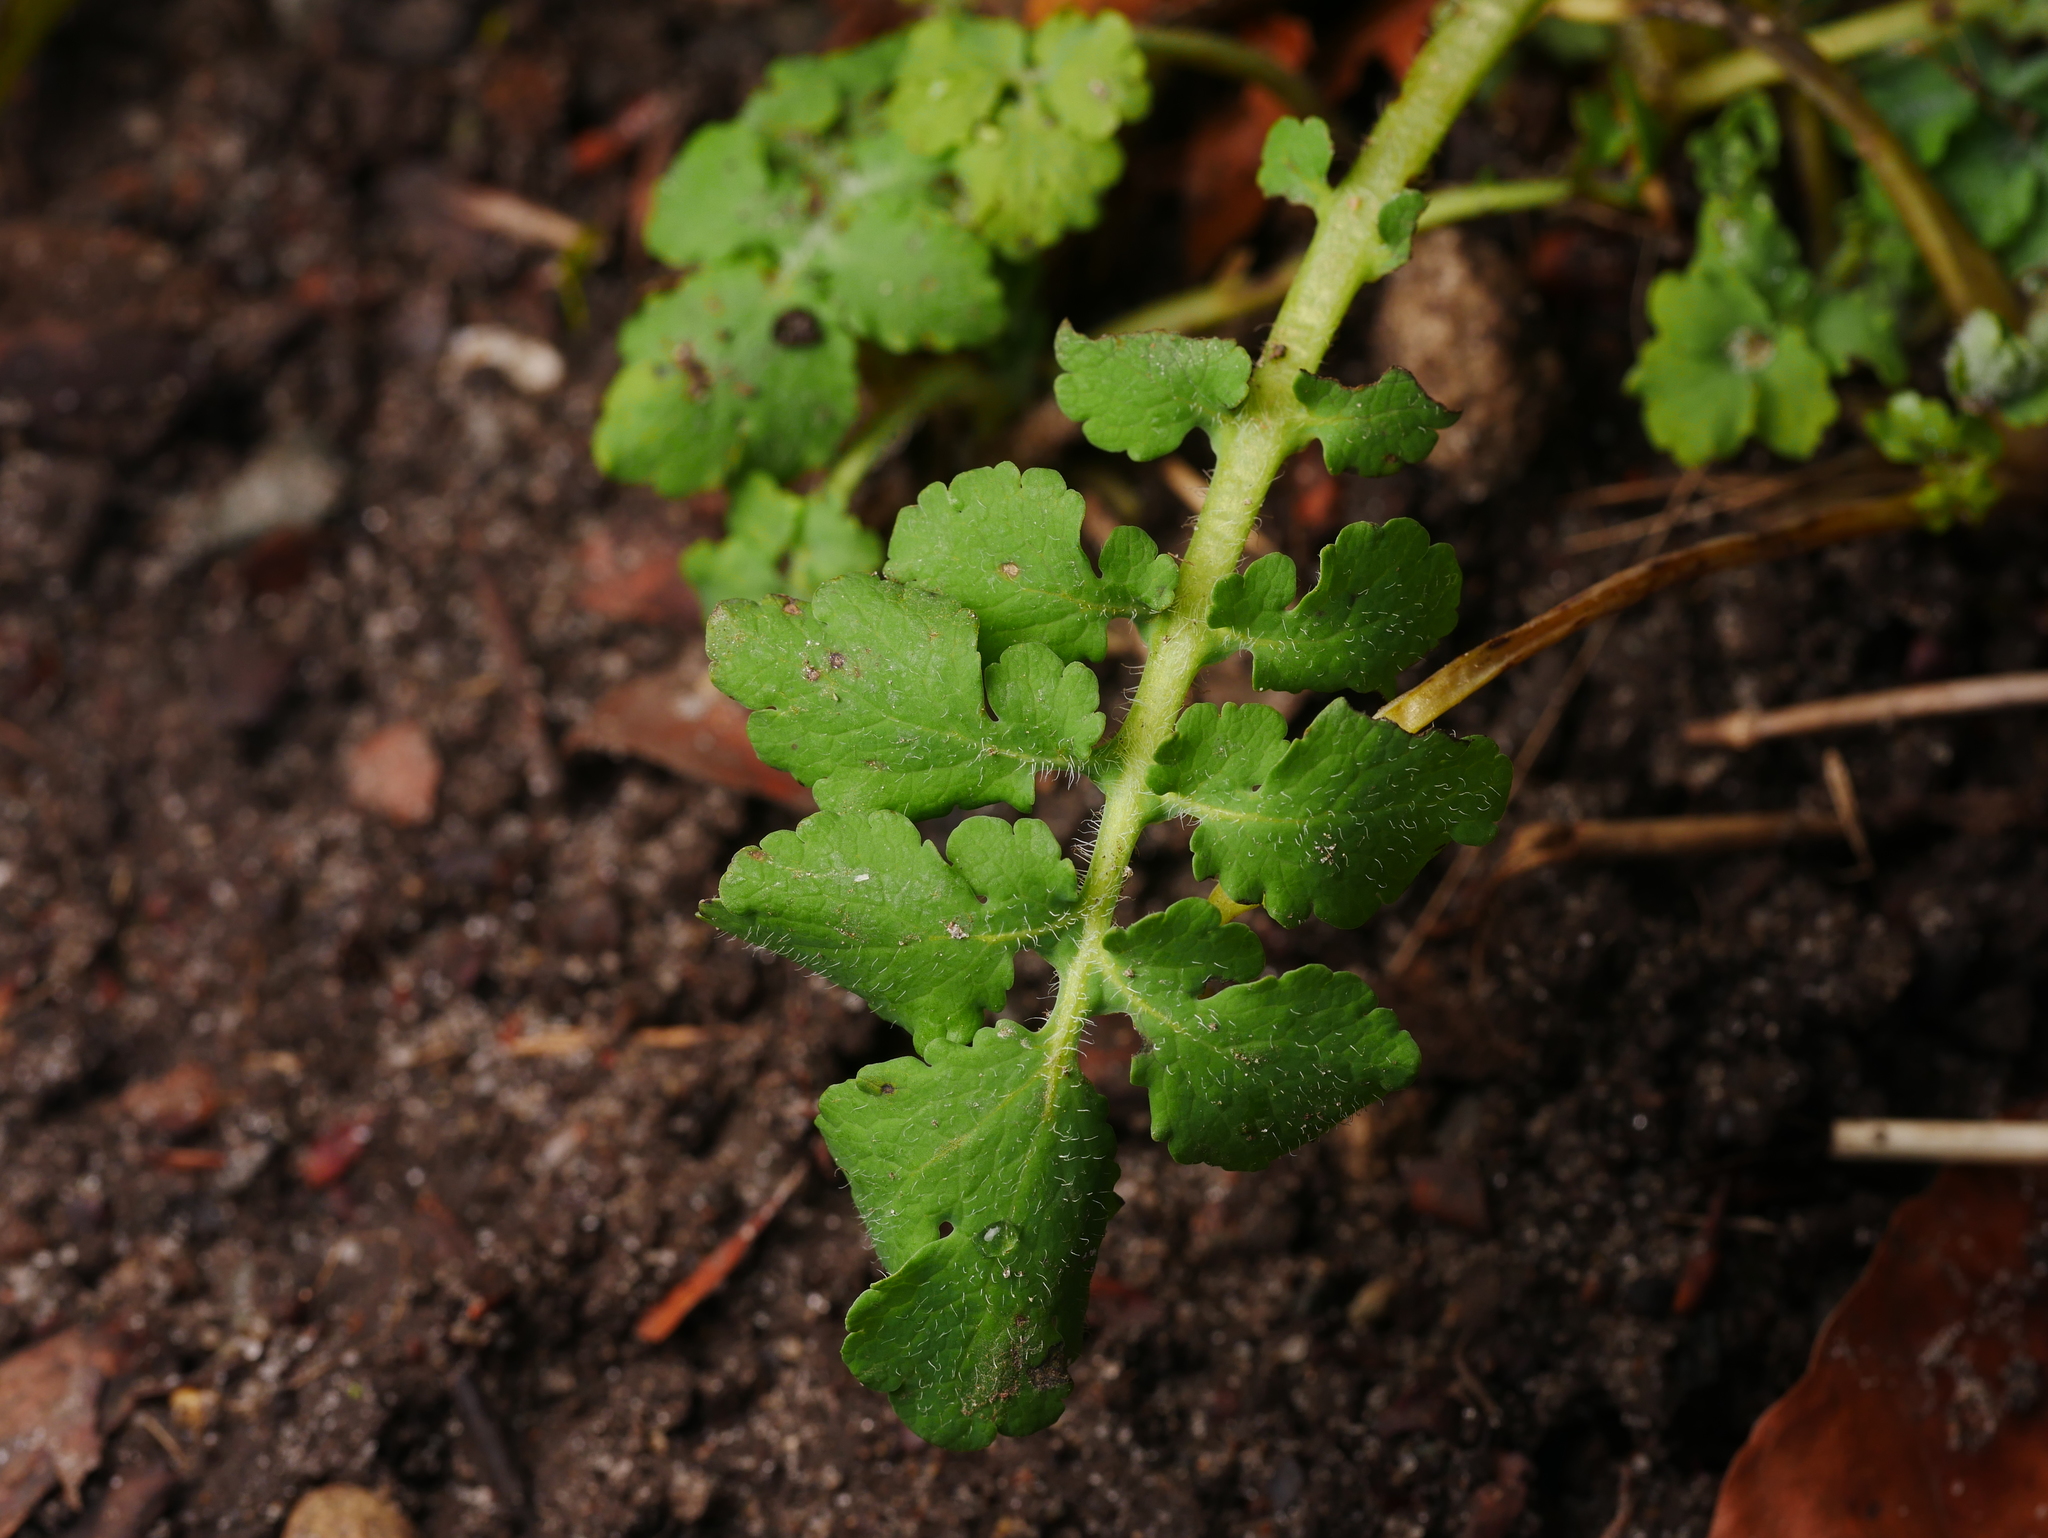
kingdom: Plantae
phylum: Tracheophyta
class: Magnoliopsida
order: Ranunculales
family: Papaveraceae
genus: Chelidonium
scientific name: Chelidonium majus
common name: Greater celandine
